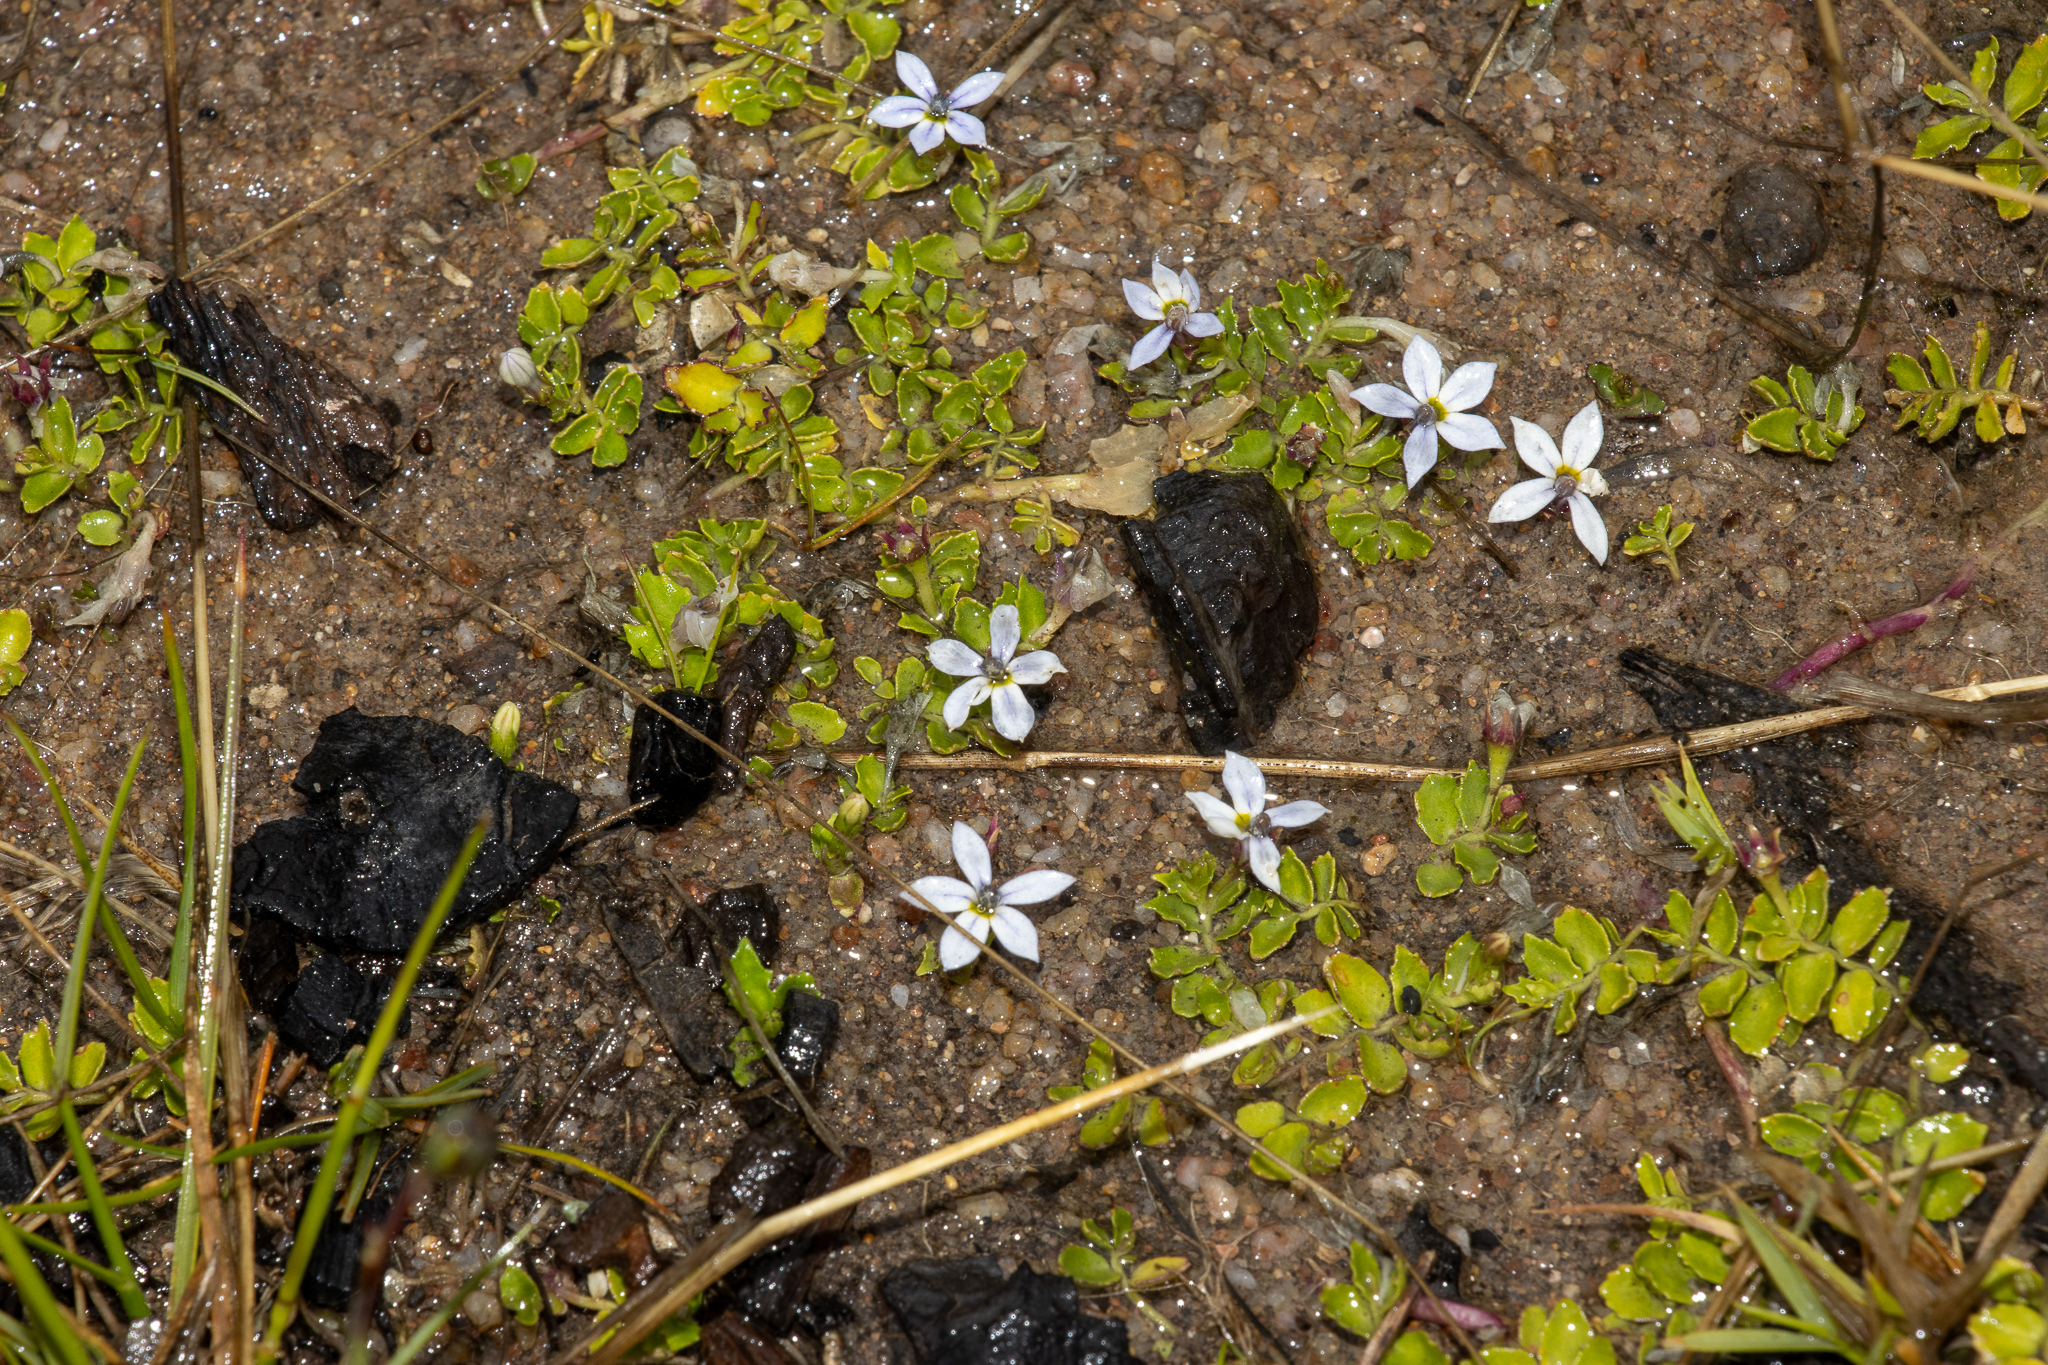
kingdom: Plantae
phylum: Tracheophyta
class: Magnoliopsida
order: Asterales
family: Campanulaceae
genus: Lobelia
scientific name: Lobelia pedunculata
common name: Matted pratia
